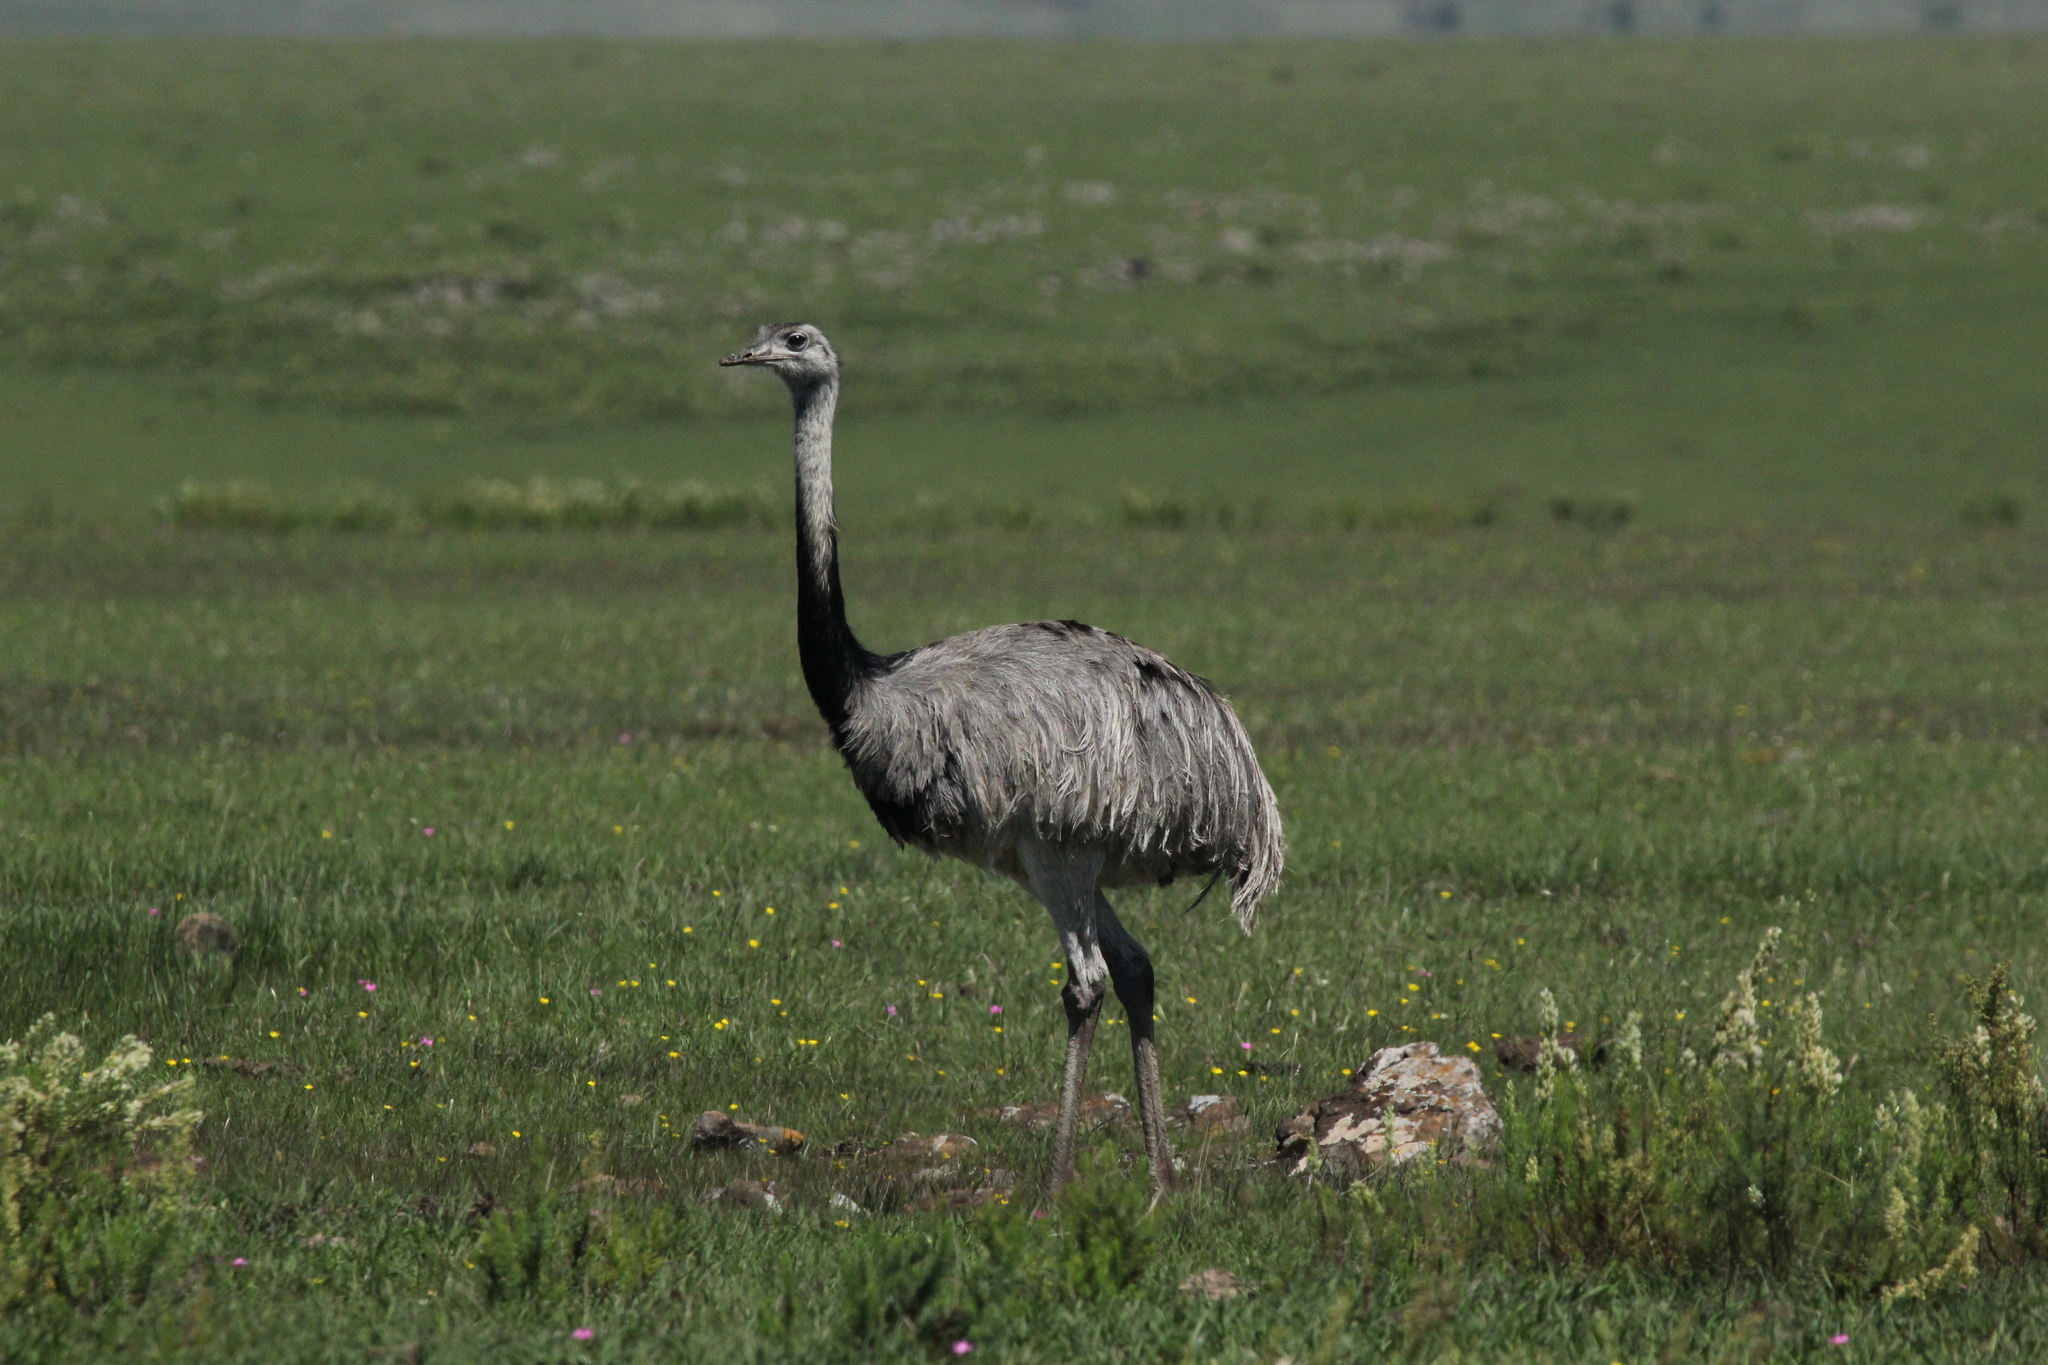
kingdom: Animalia
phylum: Chordata
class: Aves
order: Rheiformes
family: Rheidae
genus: Rhea
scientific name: Rhea americana
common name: Greater rhea
